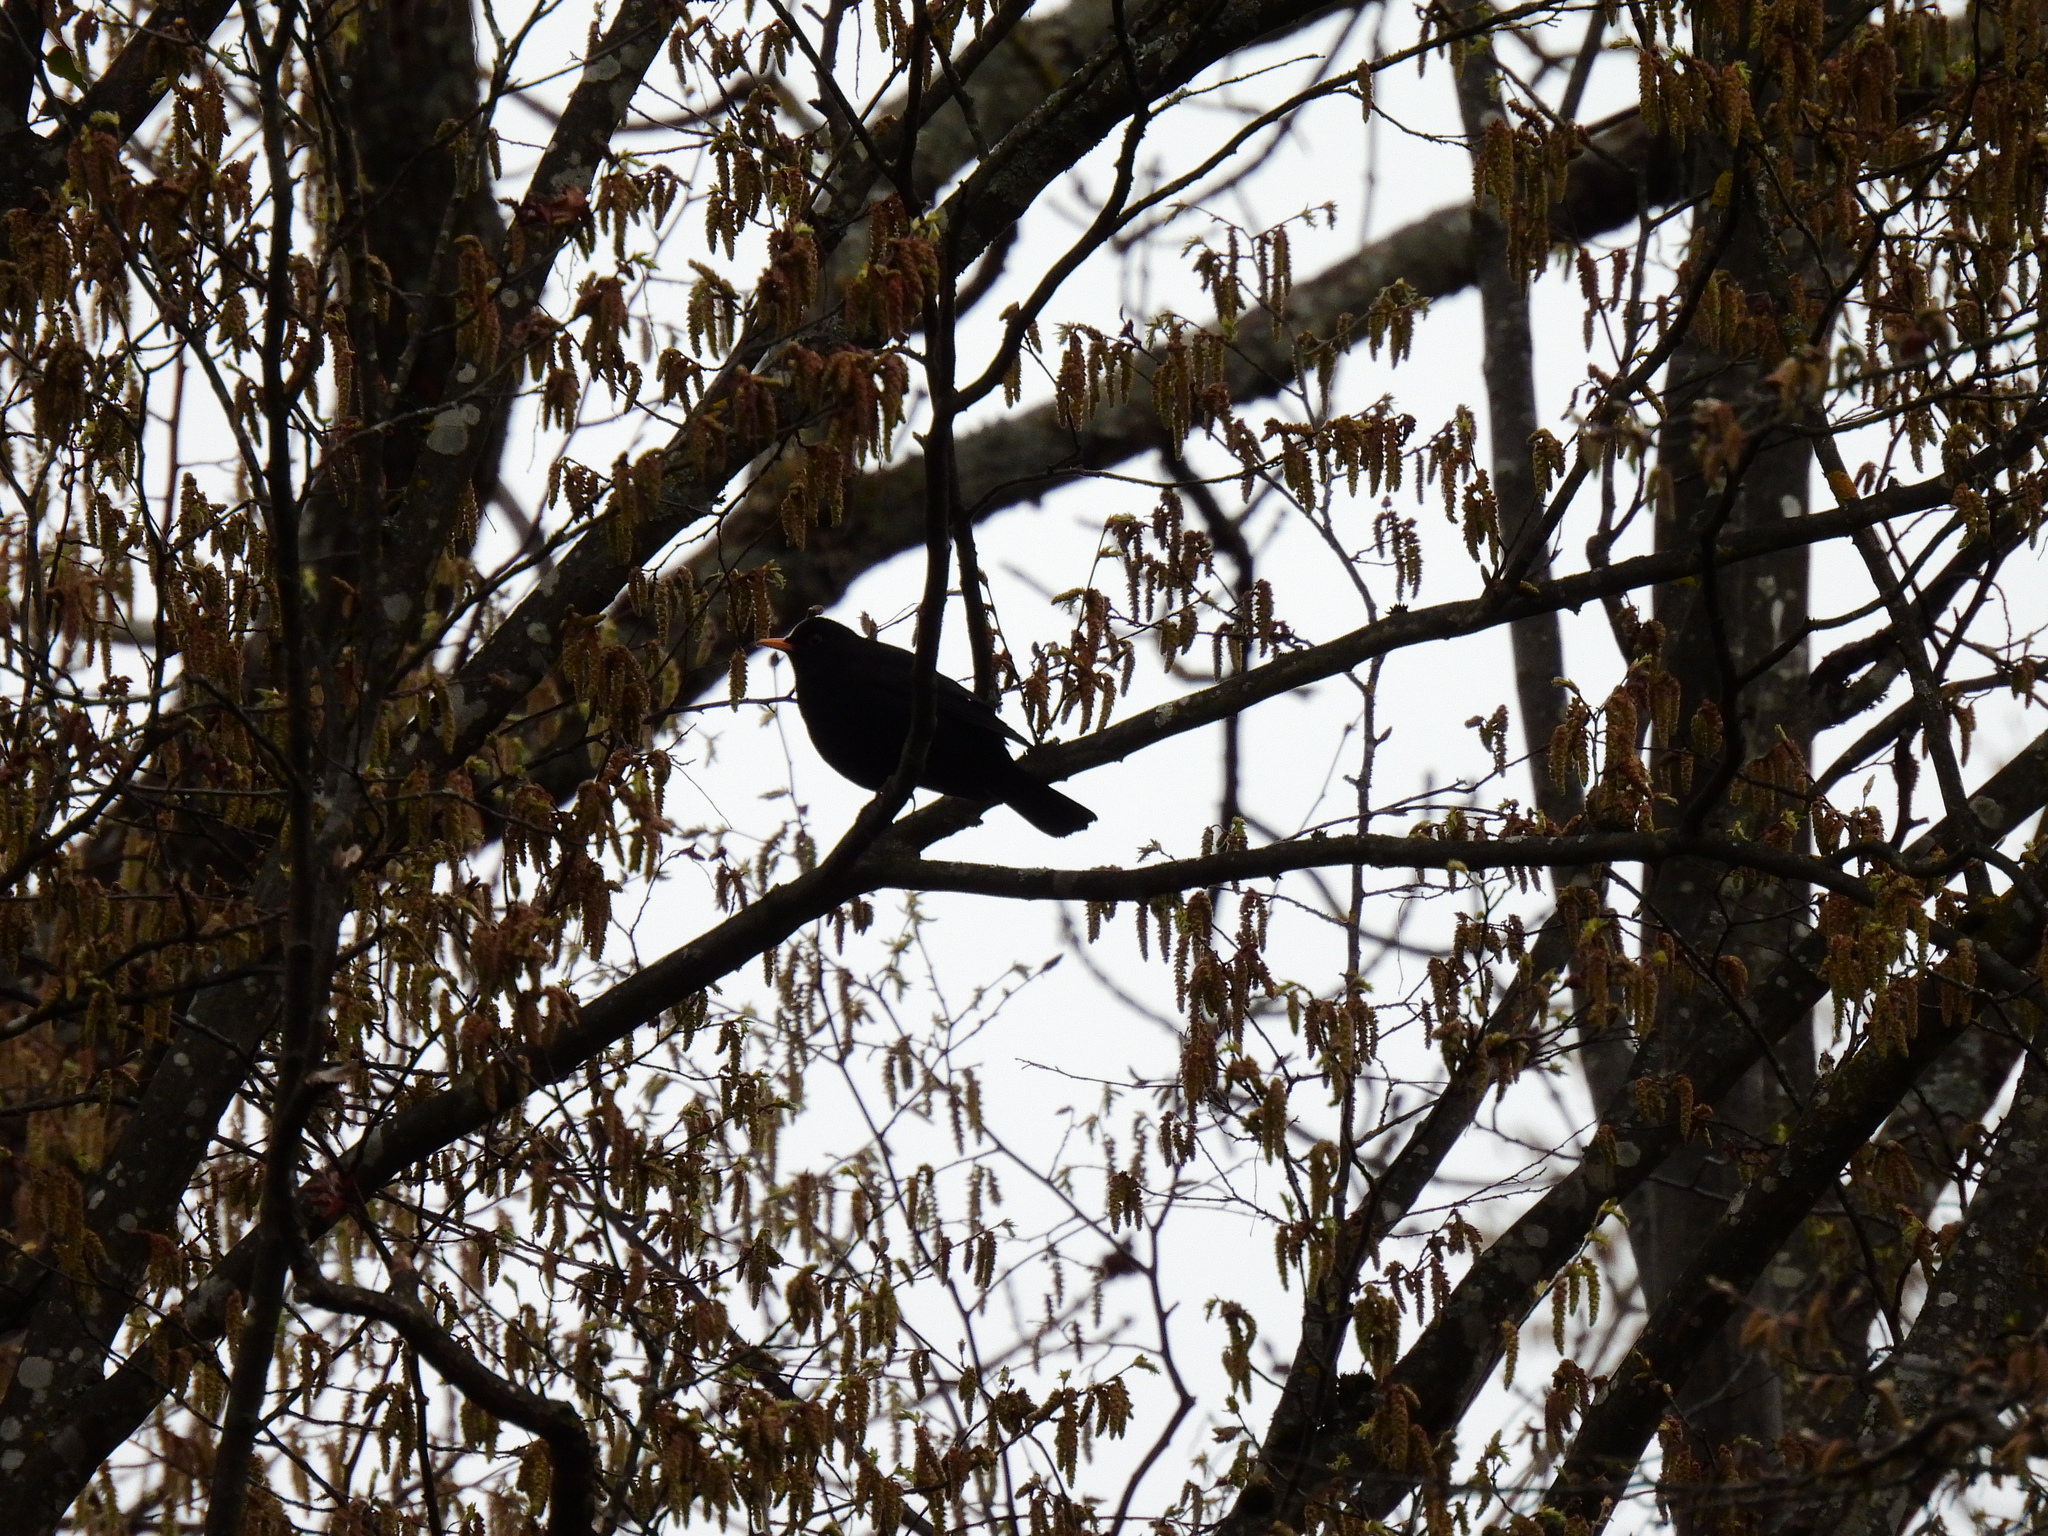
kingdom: Animalia
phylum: Chordata
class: Aves
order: Passeriformes
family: Turdidae
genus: Turdus
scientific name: Turdus merula
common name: Common blackbird
